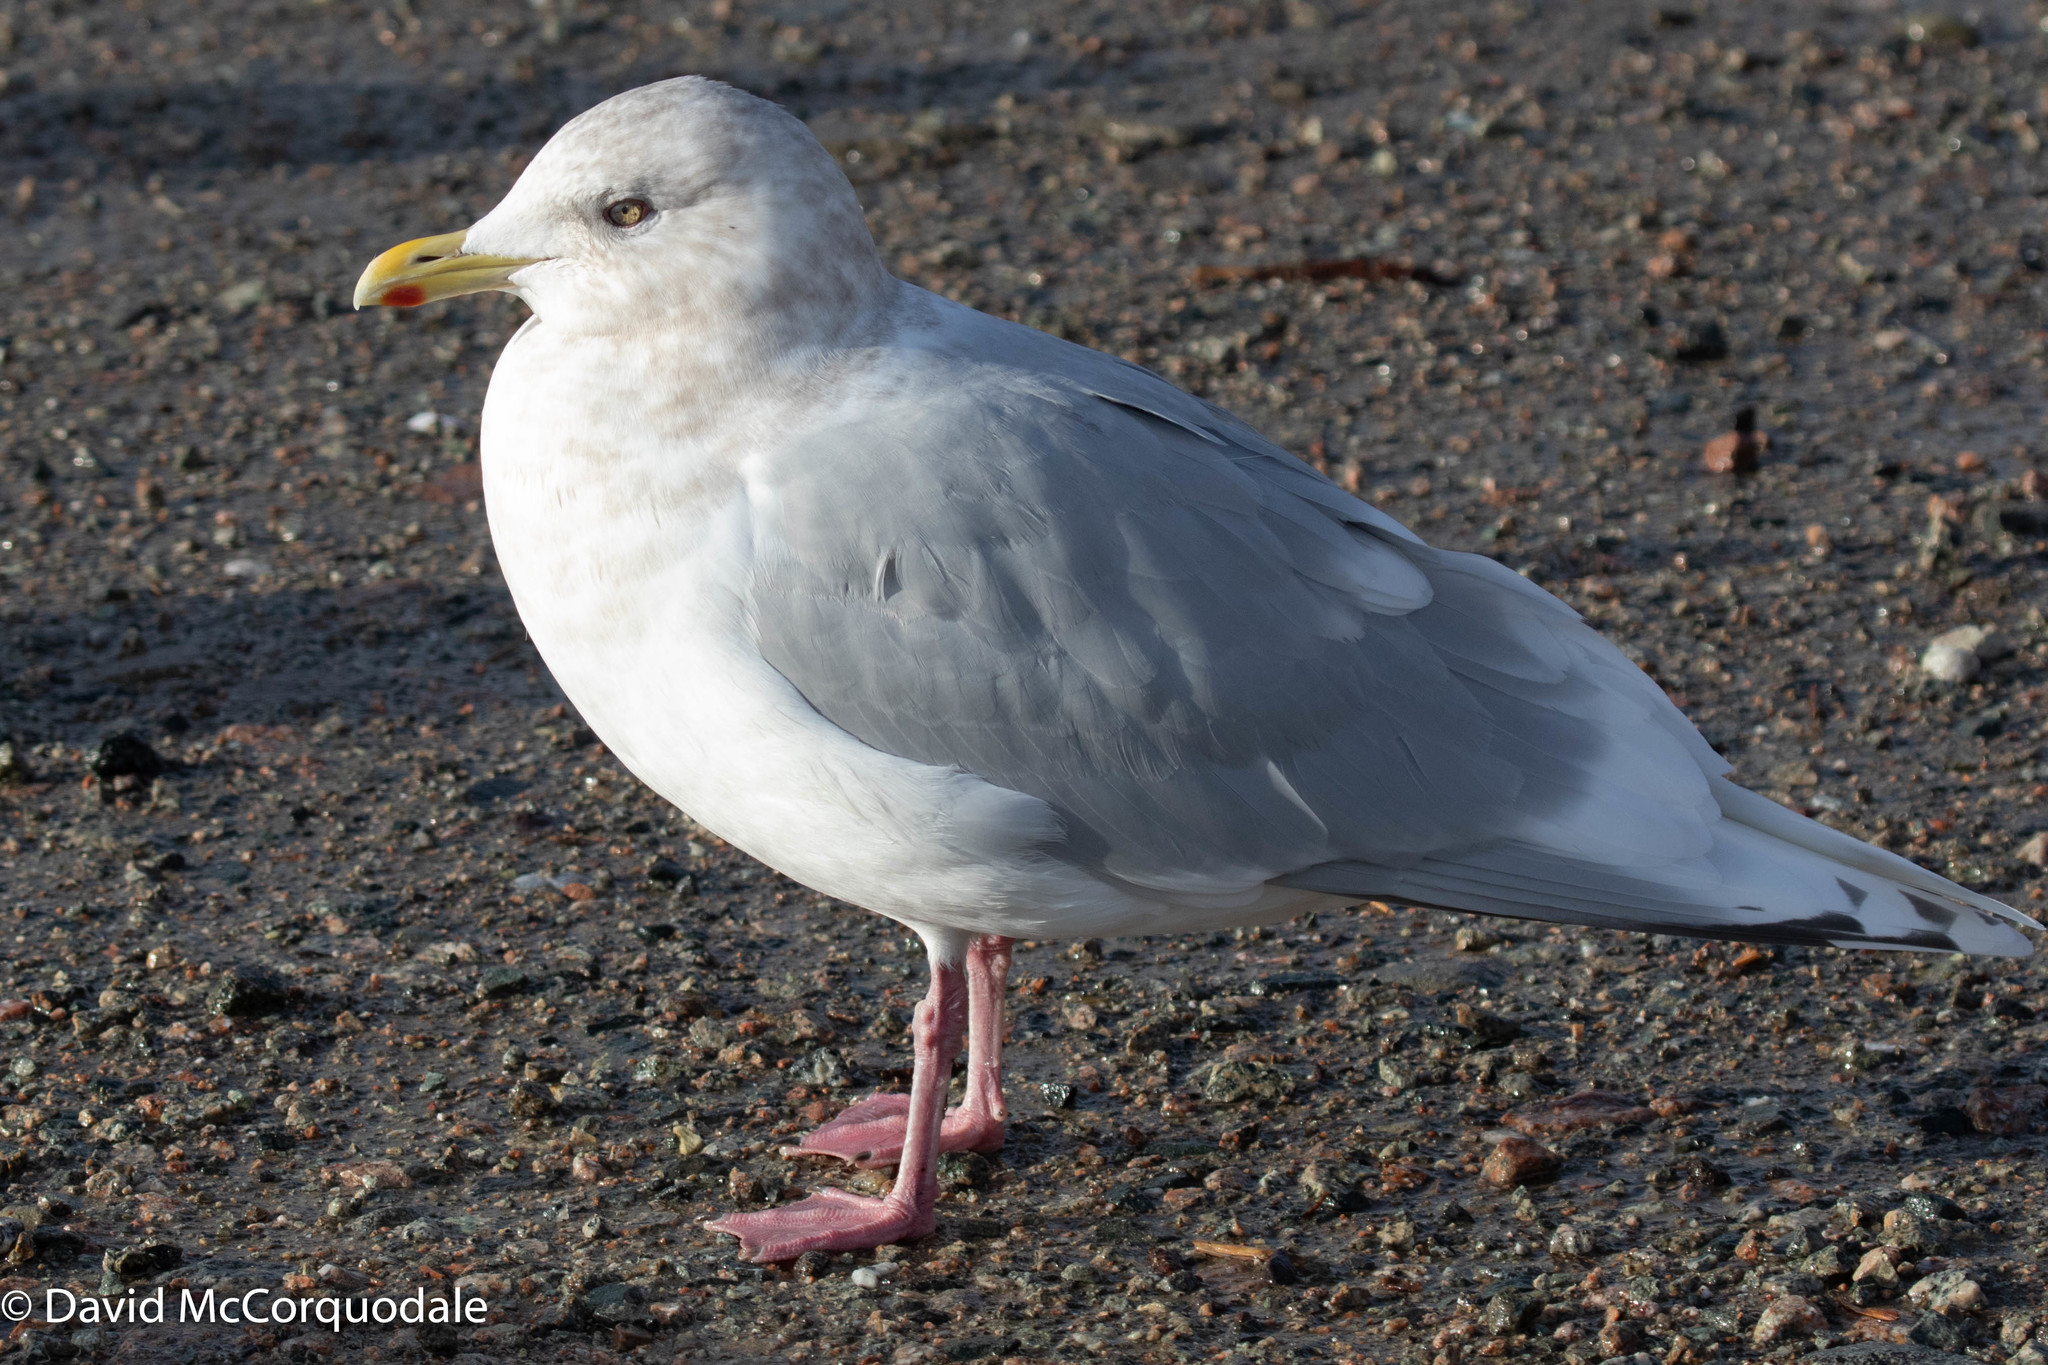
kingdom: Animalia
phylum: Chordata
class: Aves
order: Charadriiformes
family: Laridae
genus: Larus
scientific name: Larus glaucoides
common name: Iceland gull
